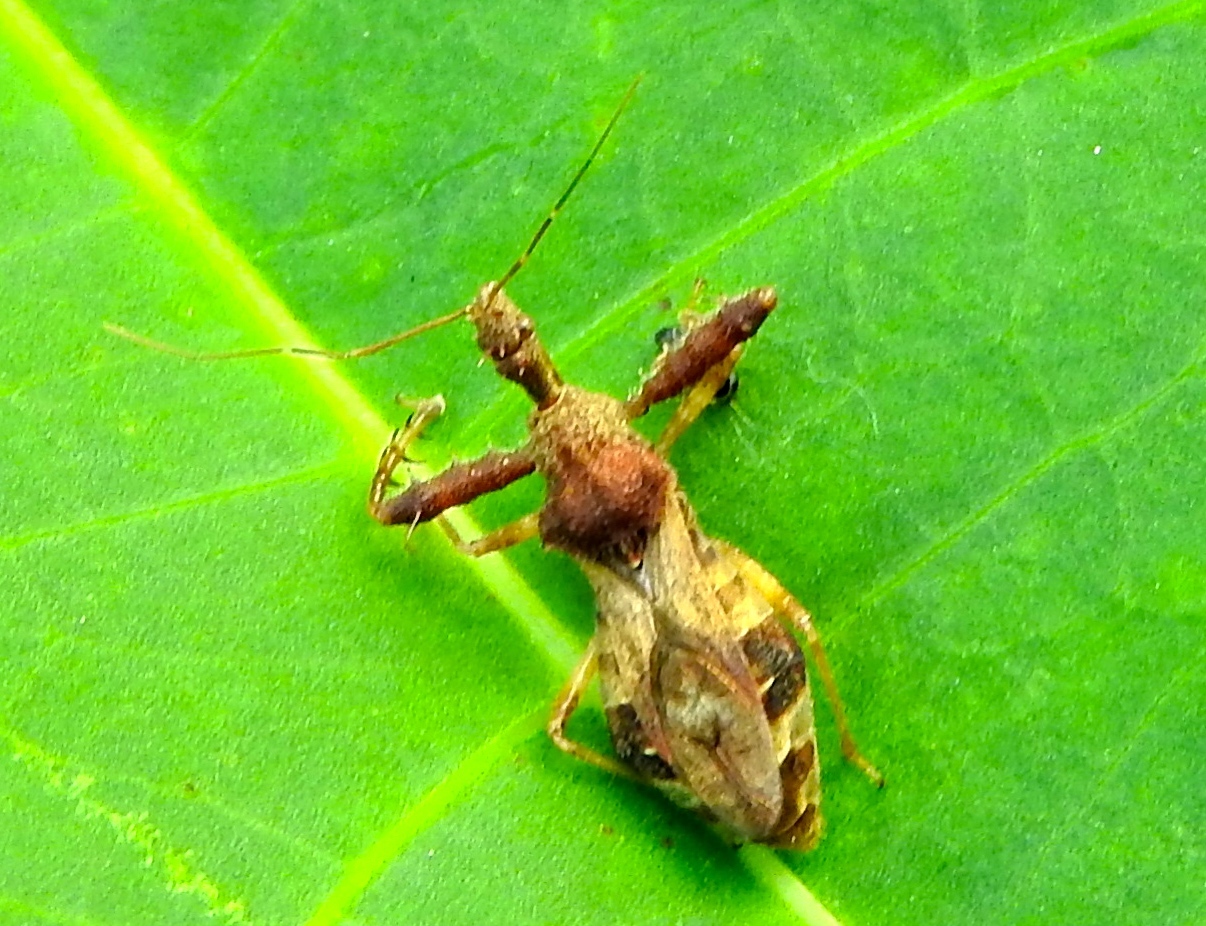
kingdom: Animalia
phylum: Arthropoda
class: Insecta
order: Hemiptera
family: Reduviidae
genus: Sinea
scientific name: Sinea
